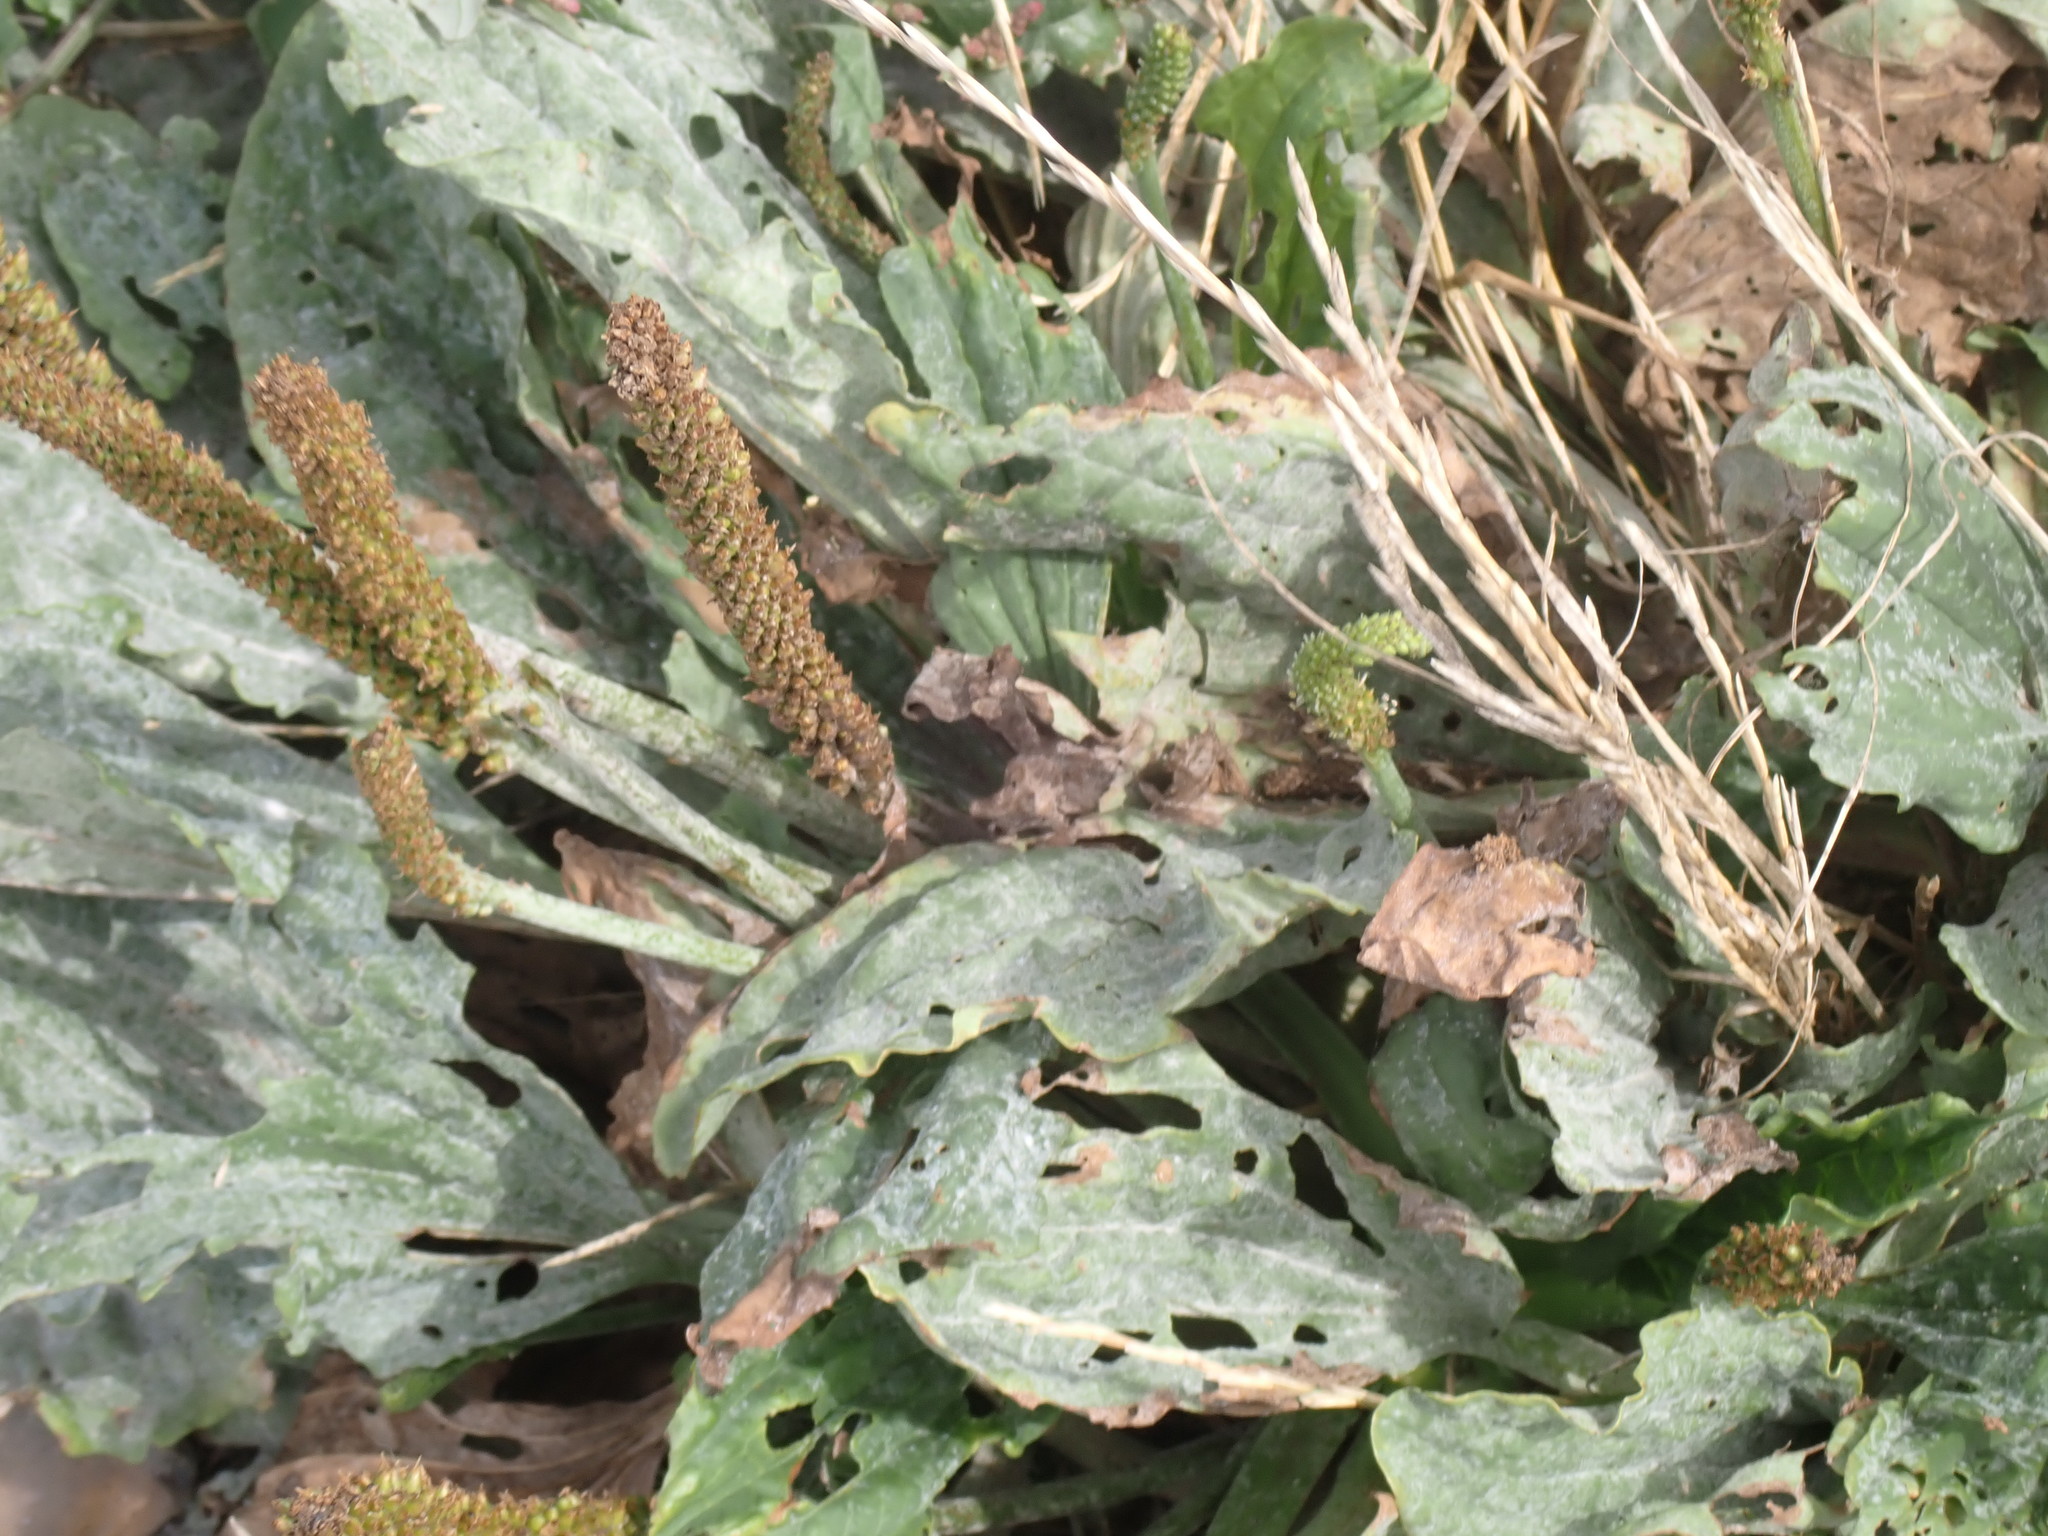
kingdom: Plantae
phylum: Tracheophyta
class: Magnoliopsida
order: Lamiales
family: Plantaginaceae
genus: Plantago
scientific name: Plantago major
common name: Common plantain
